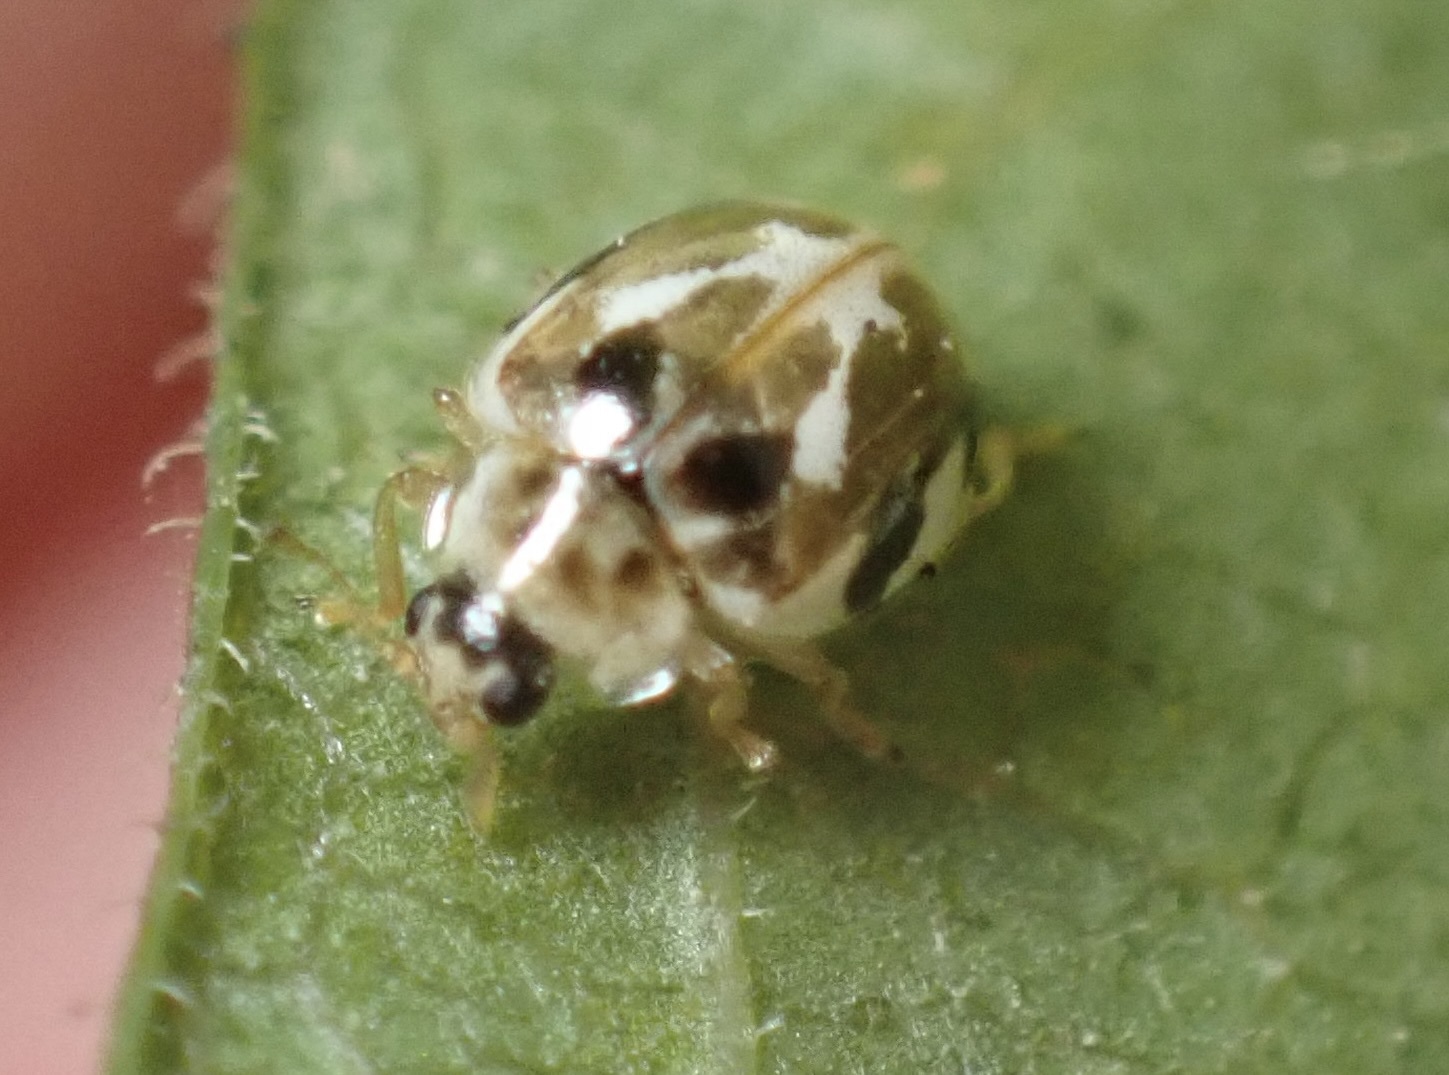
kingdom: Animalia
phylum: Arthropoda
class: Insecta
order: Coleoptera
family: Coccinellidae
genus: Psyllobora
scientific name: Psyllobora vigintimaculata
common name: Ladybird beetle
